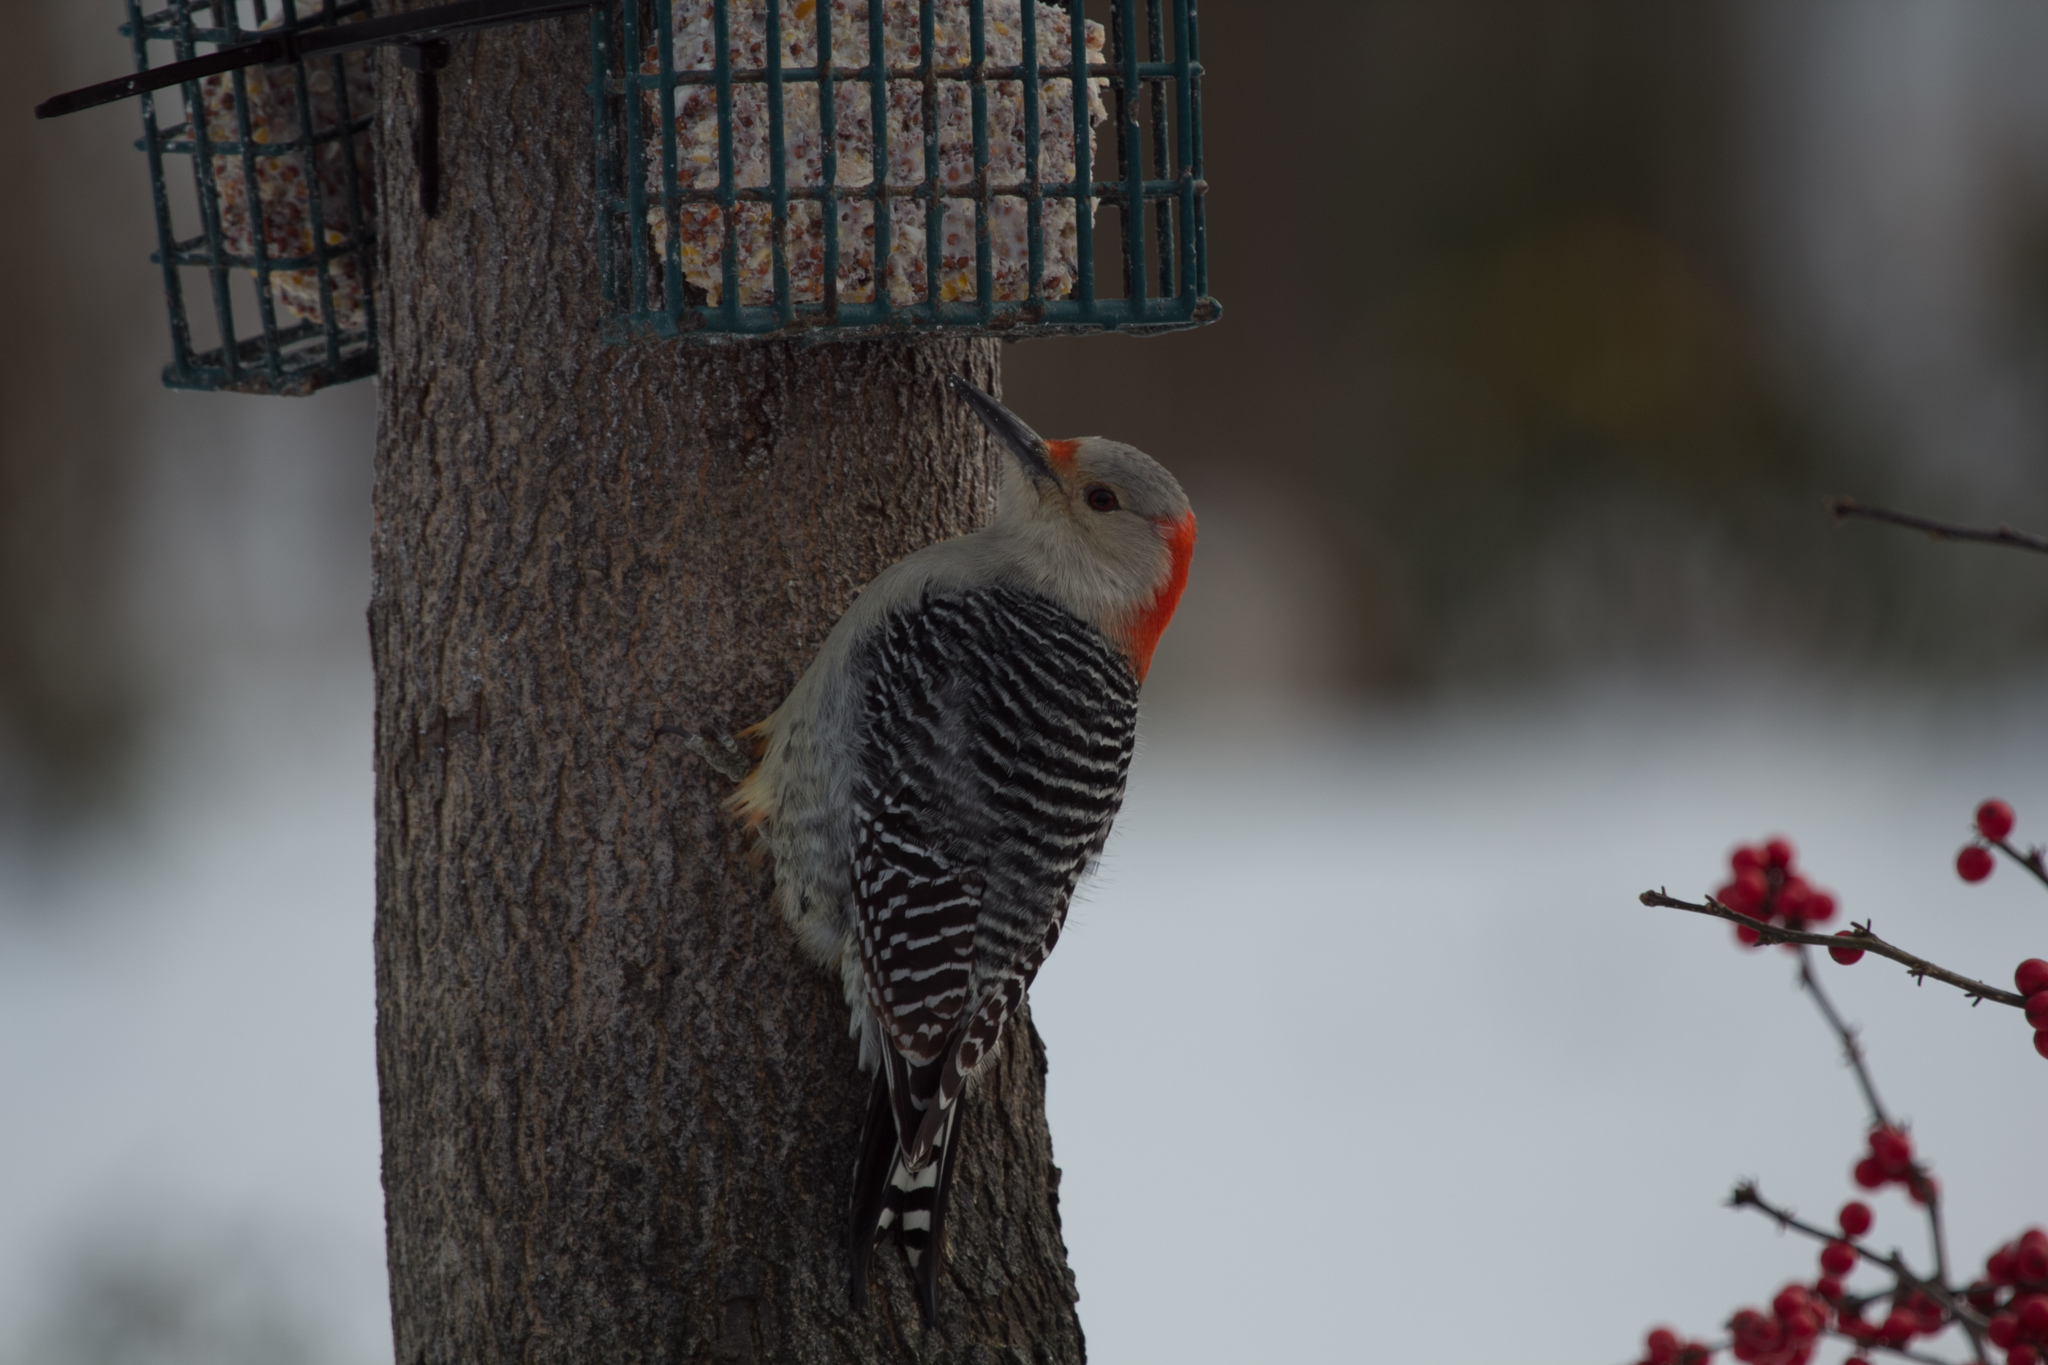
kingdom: Animalia
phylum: Chordata
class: Aves
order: Piciformes
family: Picidae
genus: Melanerpes
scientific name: Melanerpes carolinus
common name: Red-bellied woodpecker
